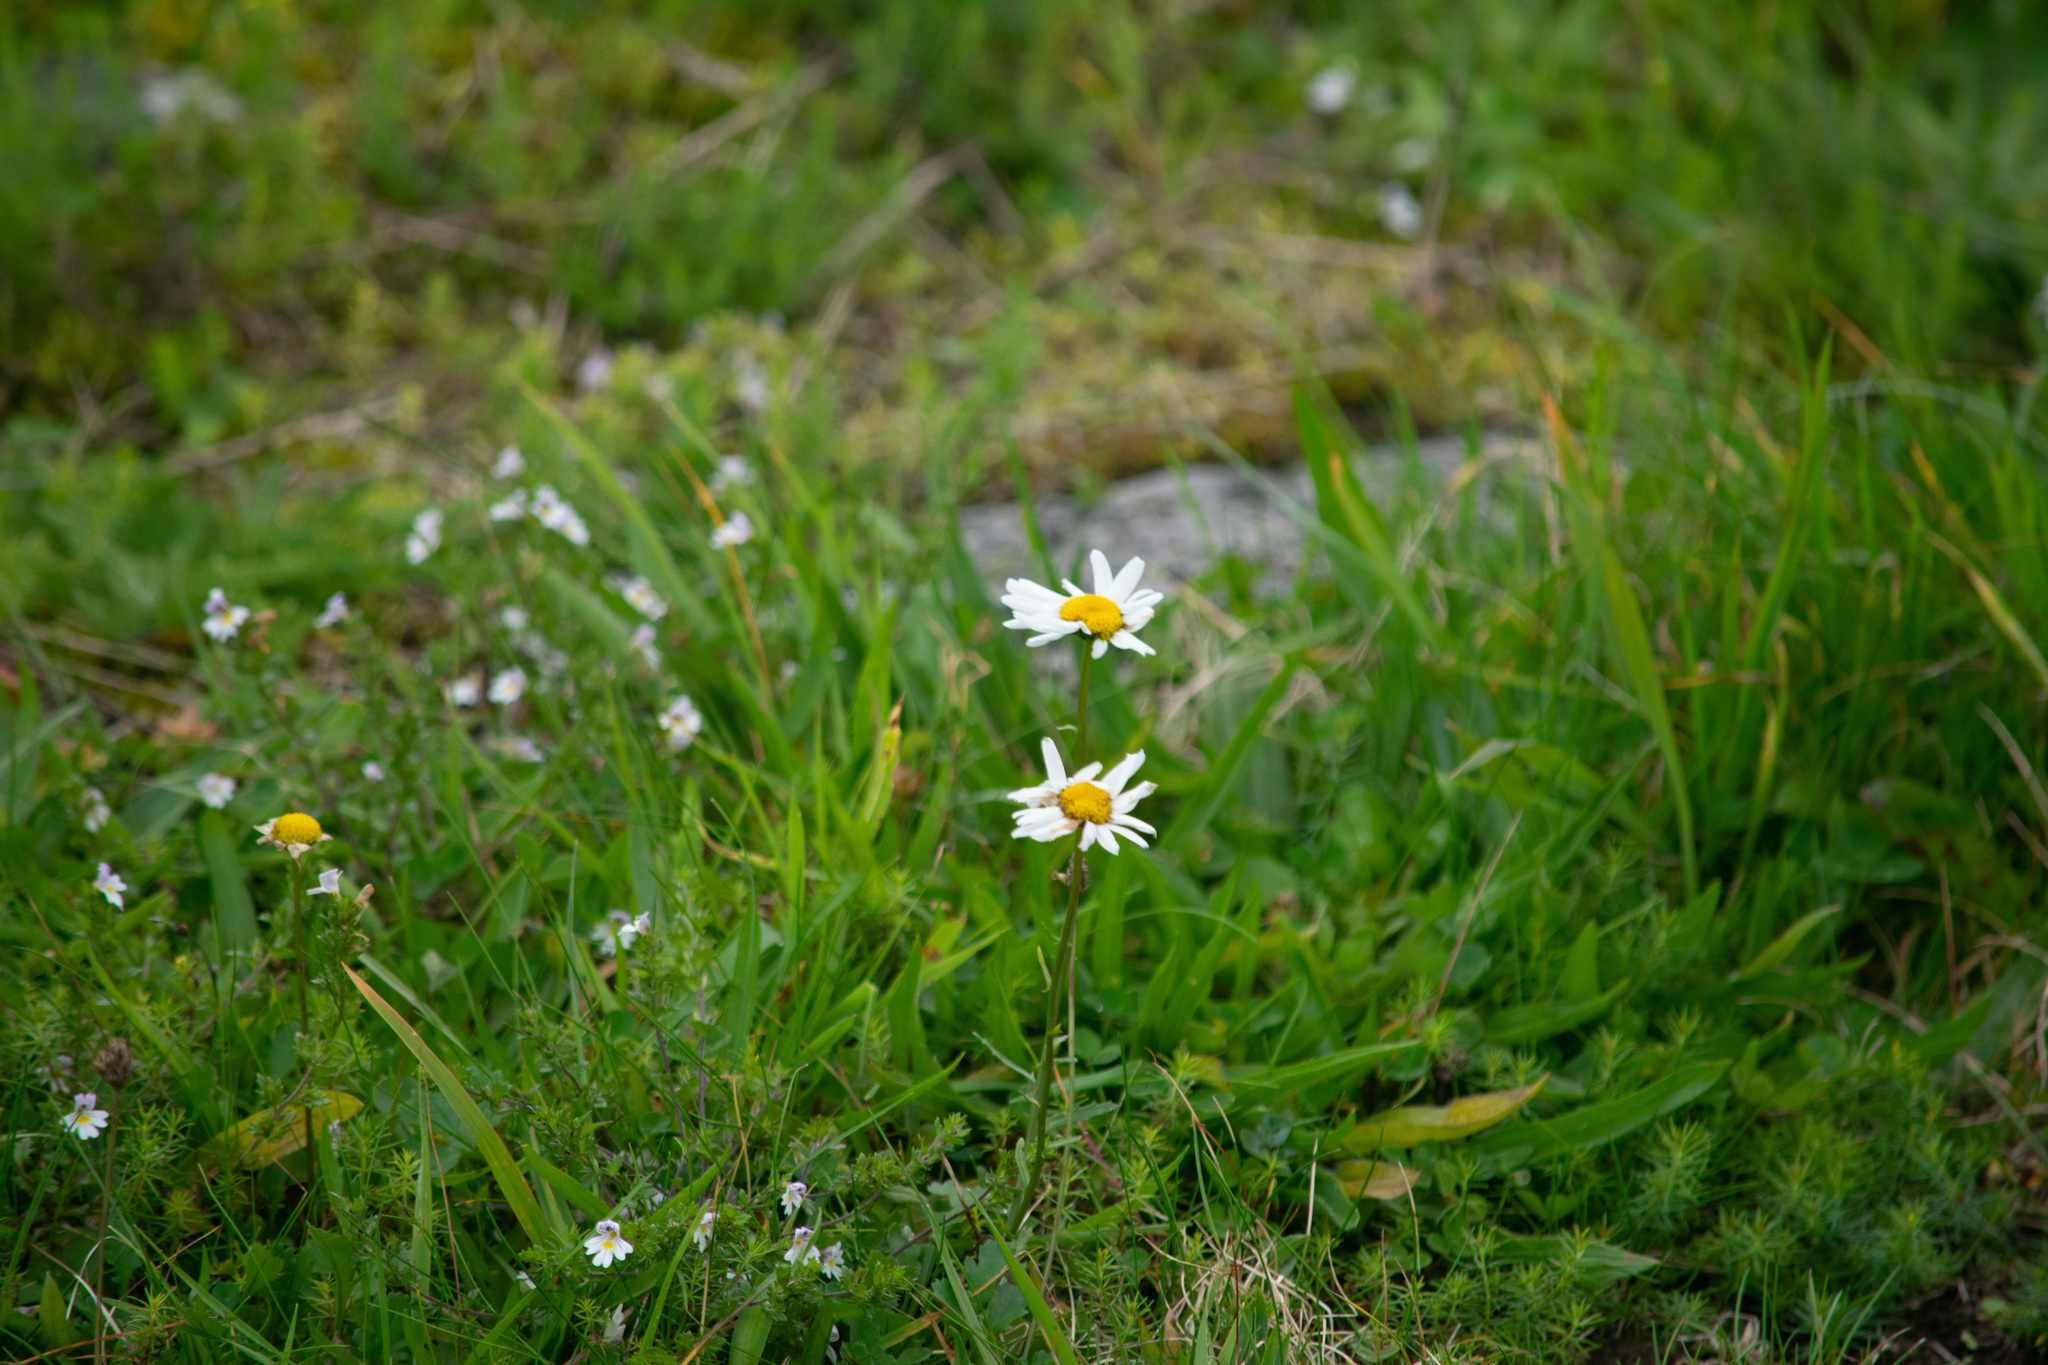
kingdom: Plantae
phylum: Tracheophyta
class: Magnoliopsida
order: Asterales
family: Asteraceae
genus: Leucanthemum
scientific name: Leucanthemum vulgare
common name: Oxeye daisy
